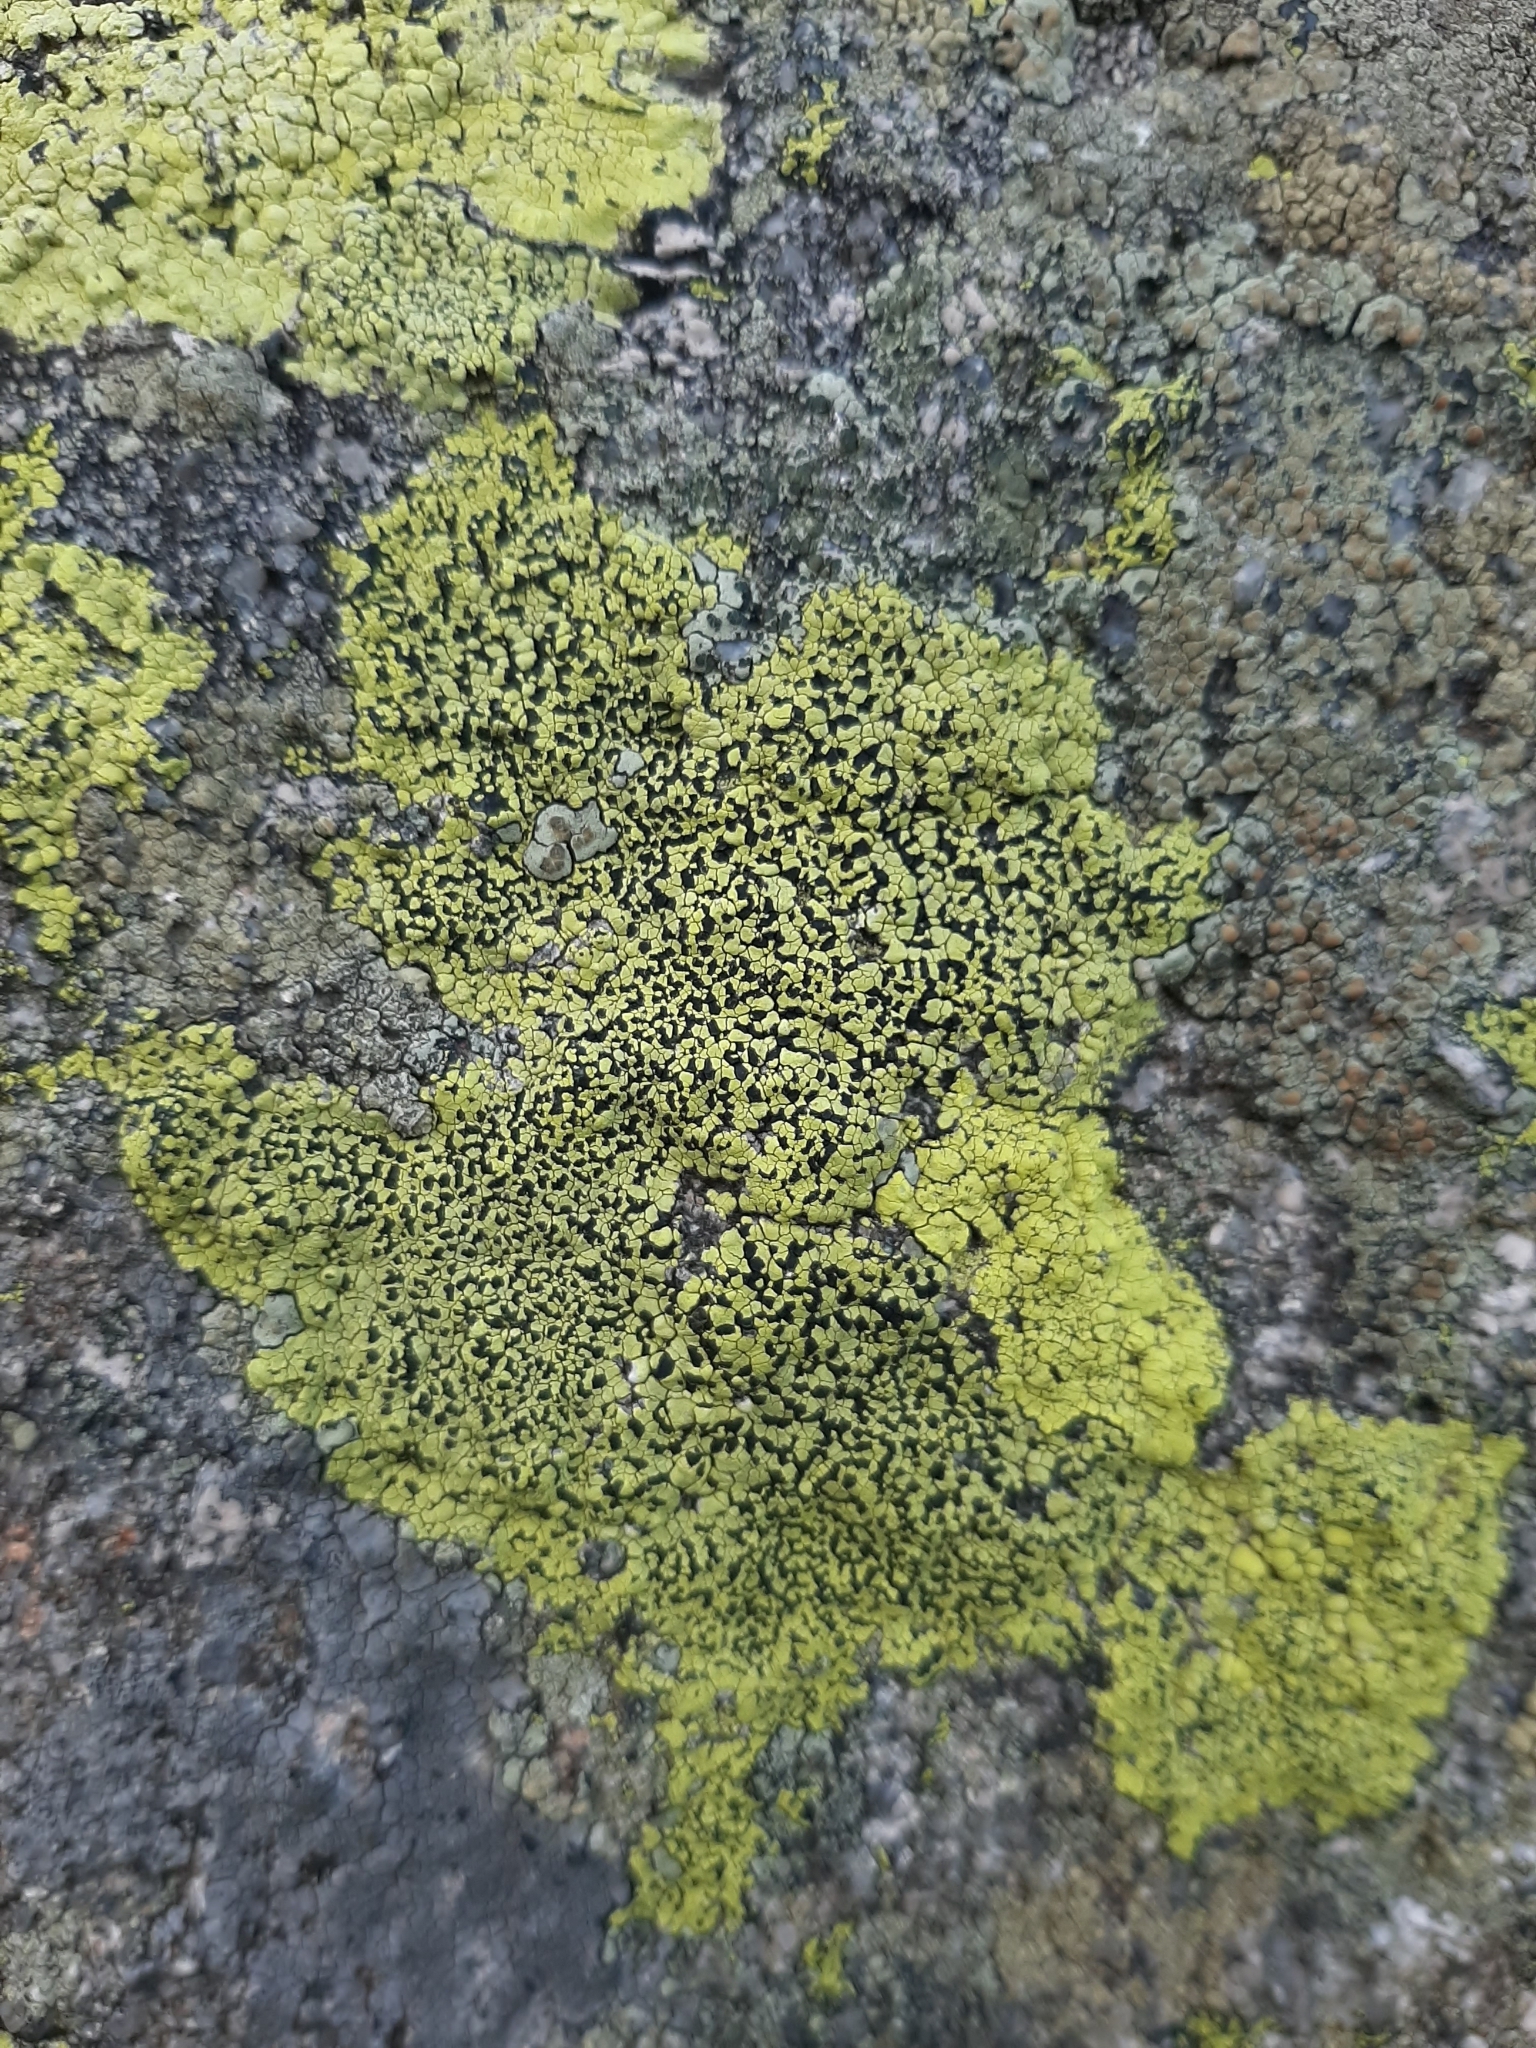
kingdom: Fungi
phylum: Ascomycota
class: Lecanoromycetes
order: Rhizocarpales
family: Rhizocarpaceae
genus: Rhizocarpon
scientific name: Rhizocarpon geographicum
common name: Yellow map lichen
